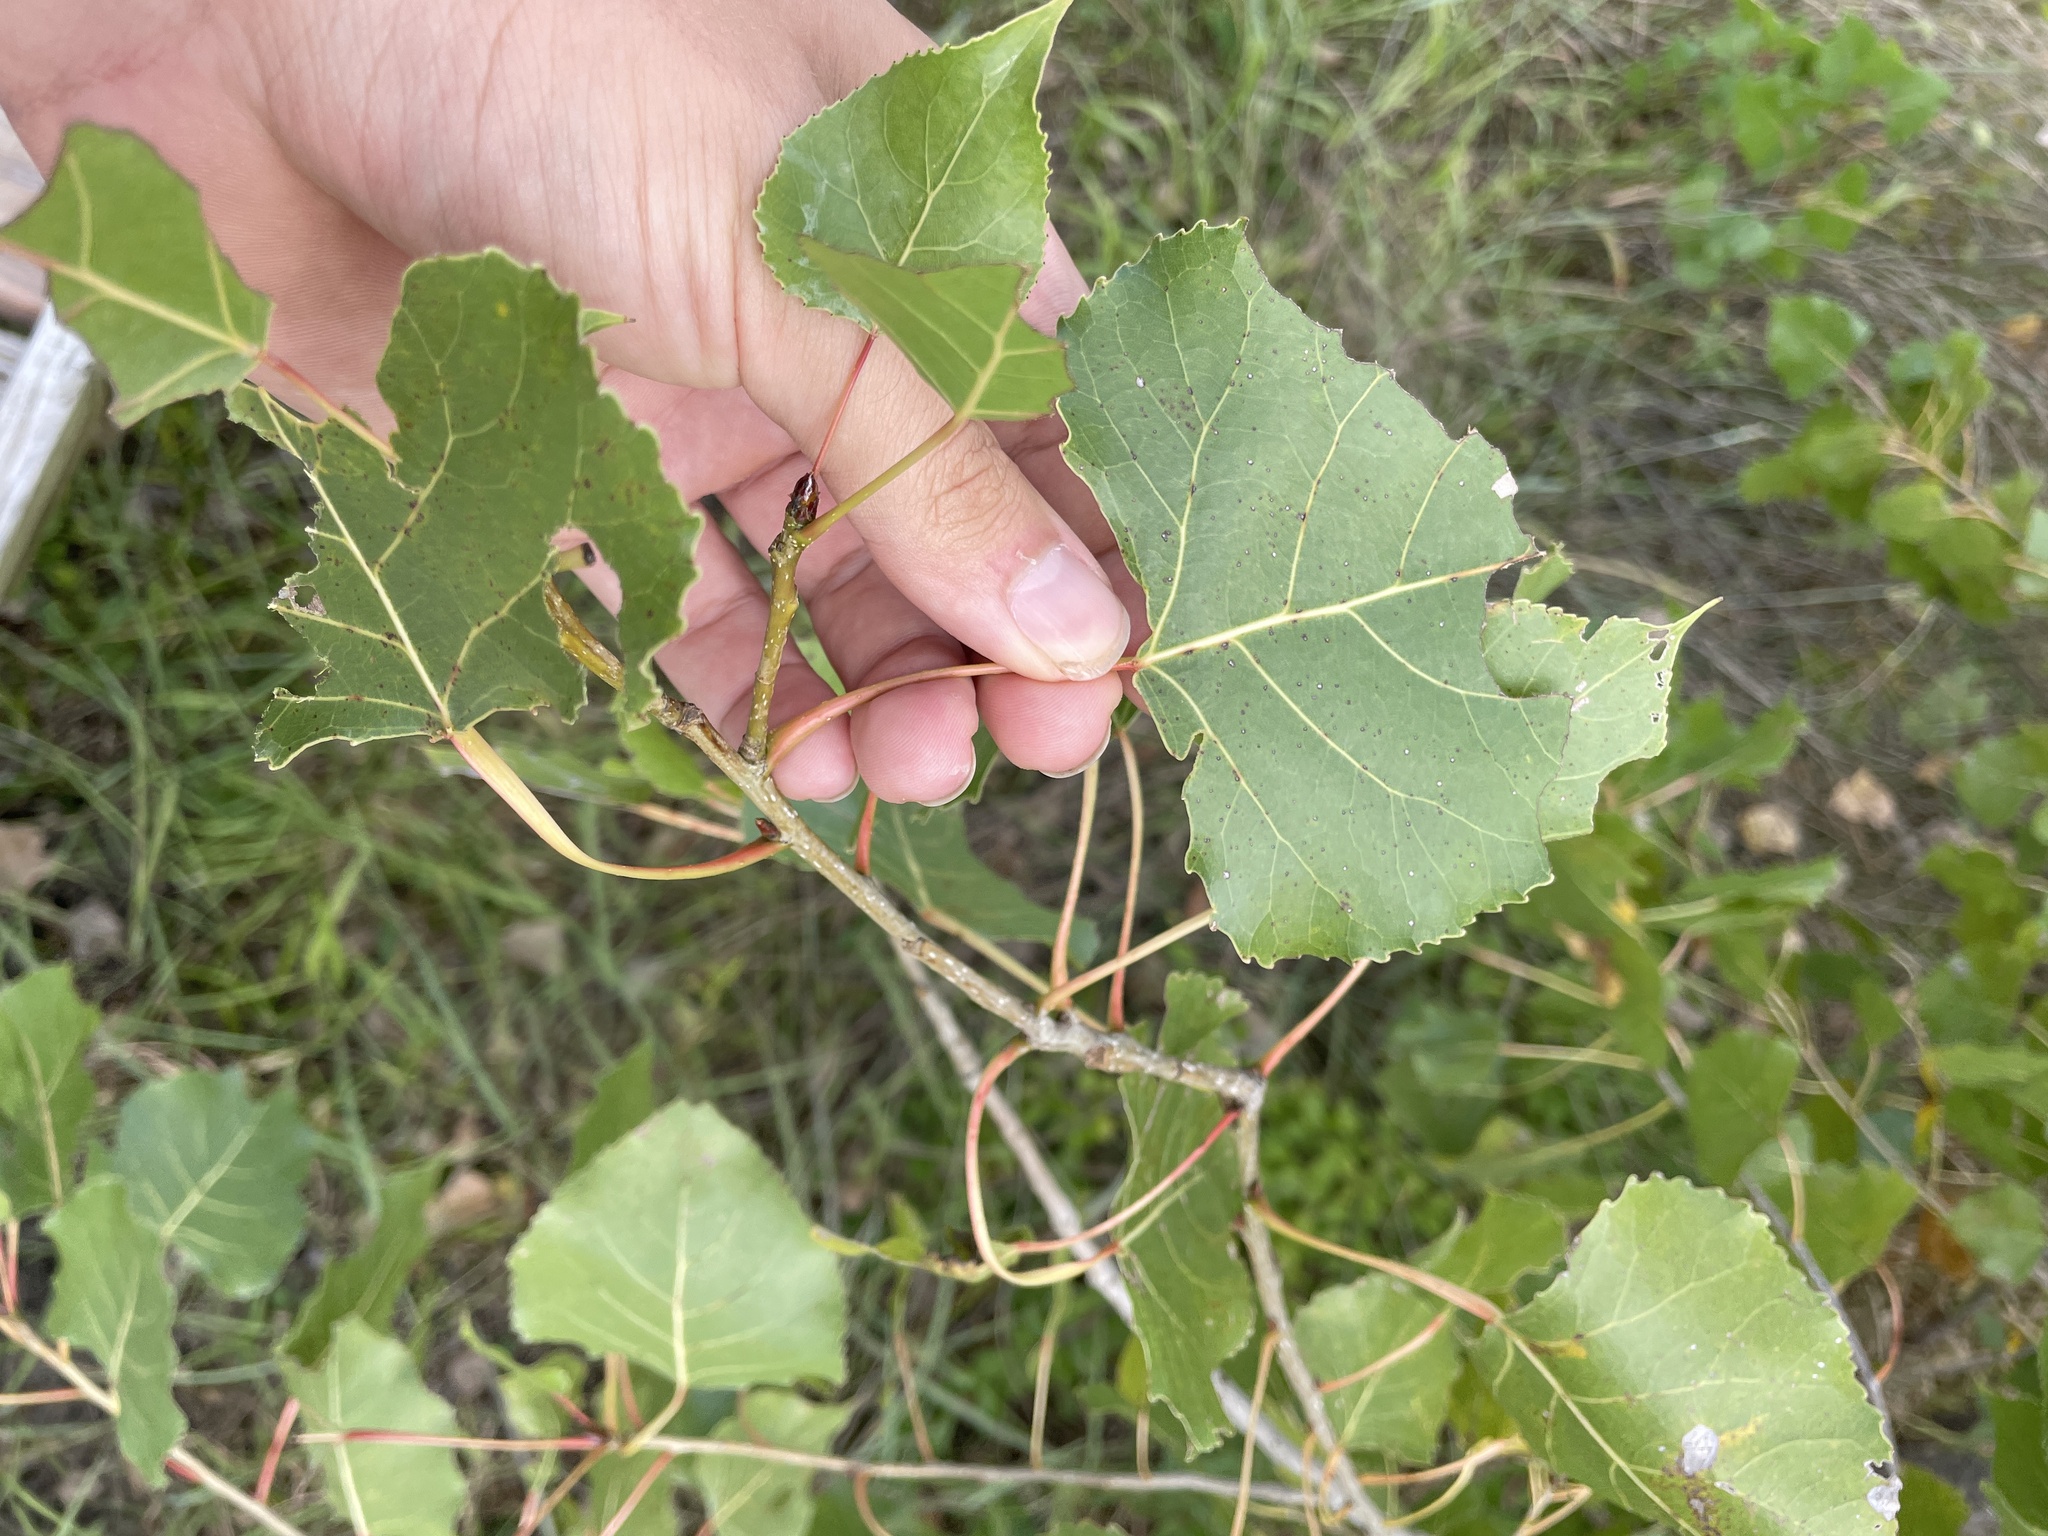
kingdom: Plantae
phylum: Tracheophyta
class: Magnoliopsida
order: Malpighiales
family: Salicaceae
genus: Populus
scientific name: Populus deltoides
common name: Eastern cottonwood
